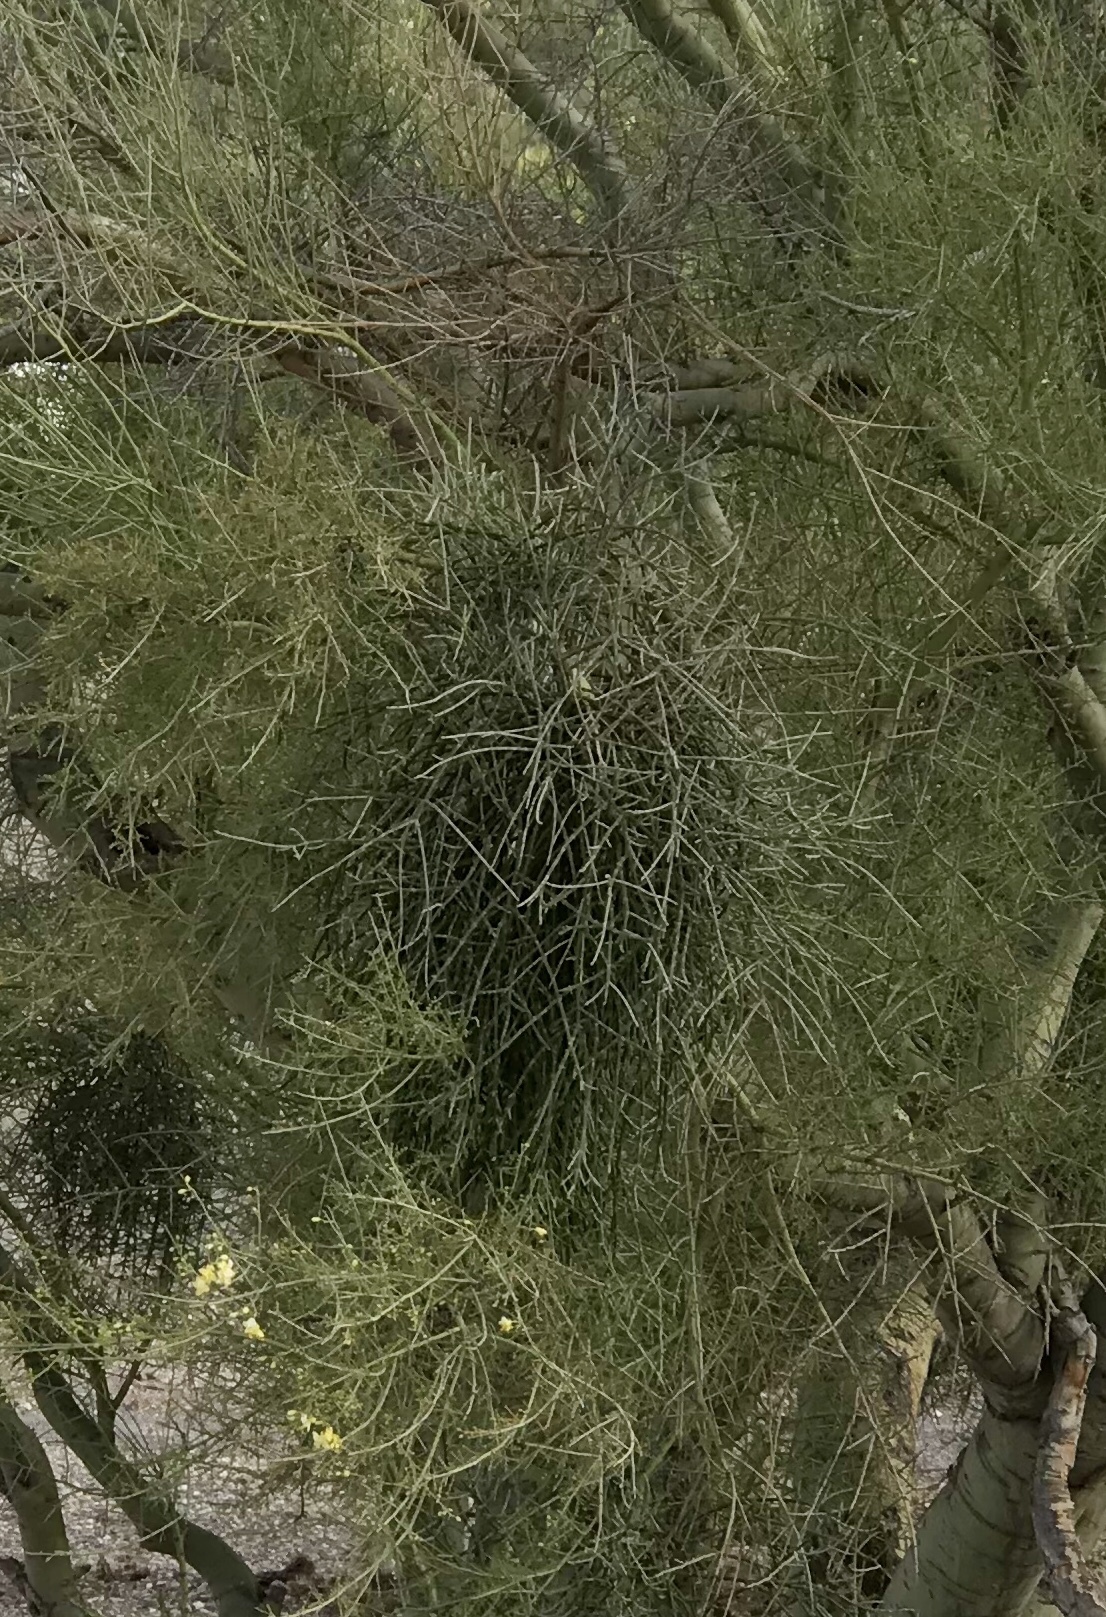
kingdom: Plantae
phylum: Tracheophyta
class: Magnoliopsida
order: Santalales
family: Viscaceae
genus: Phoradendron
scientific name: Phoradendron californicum
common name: Acacia mistletoe
